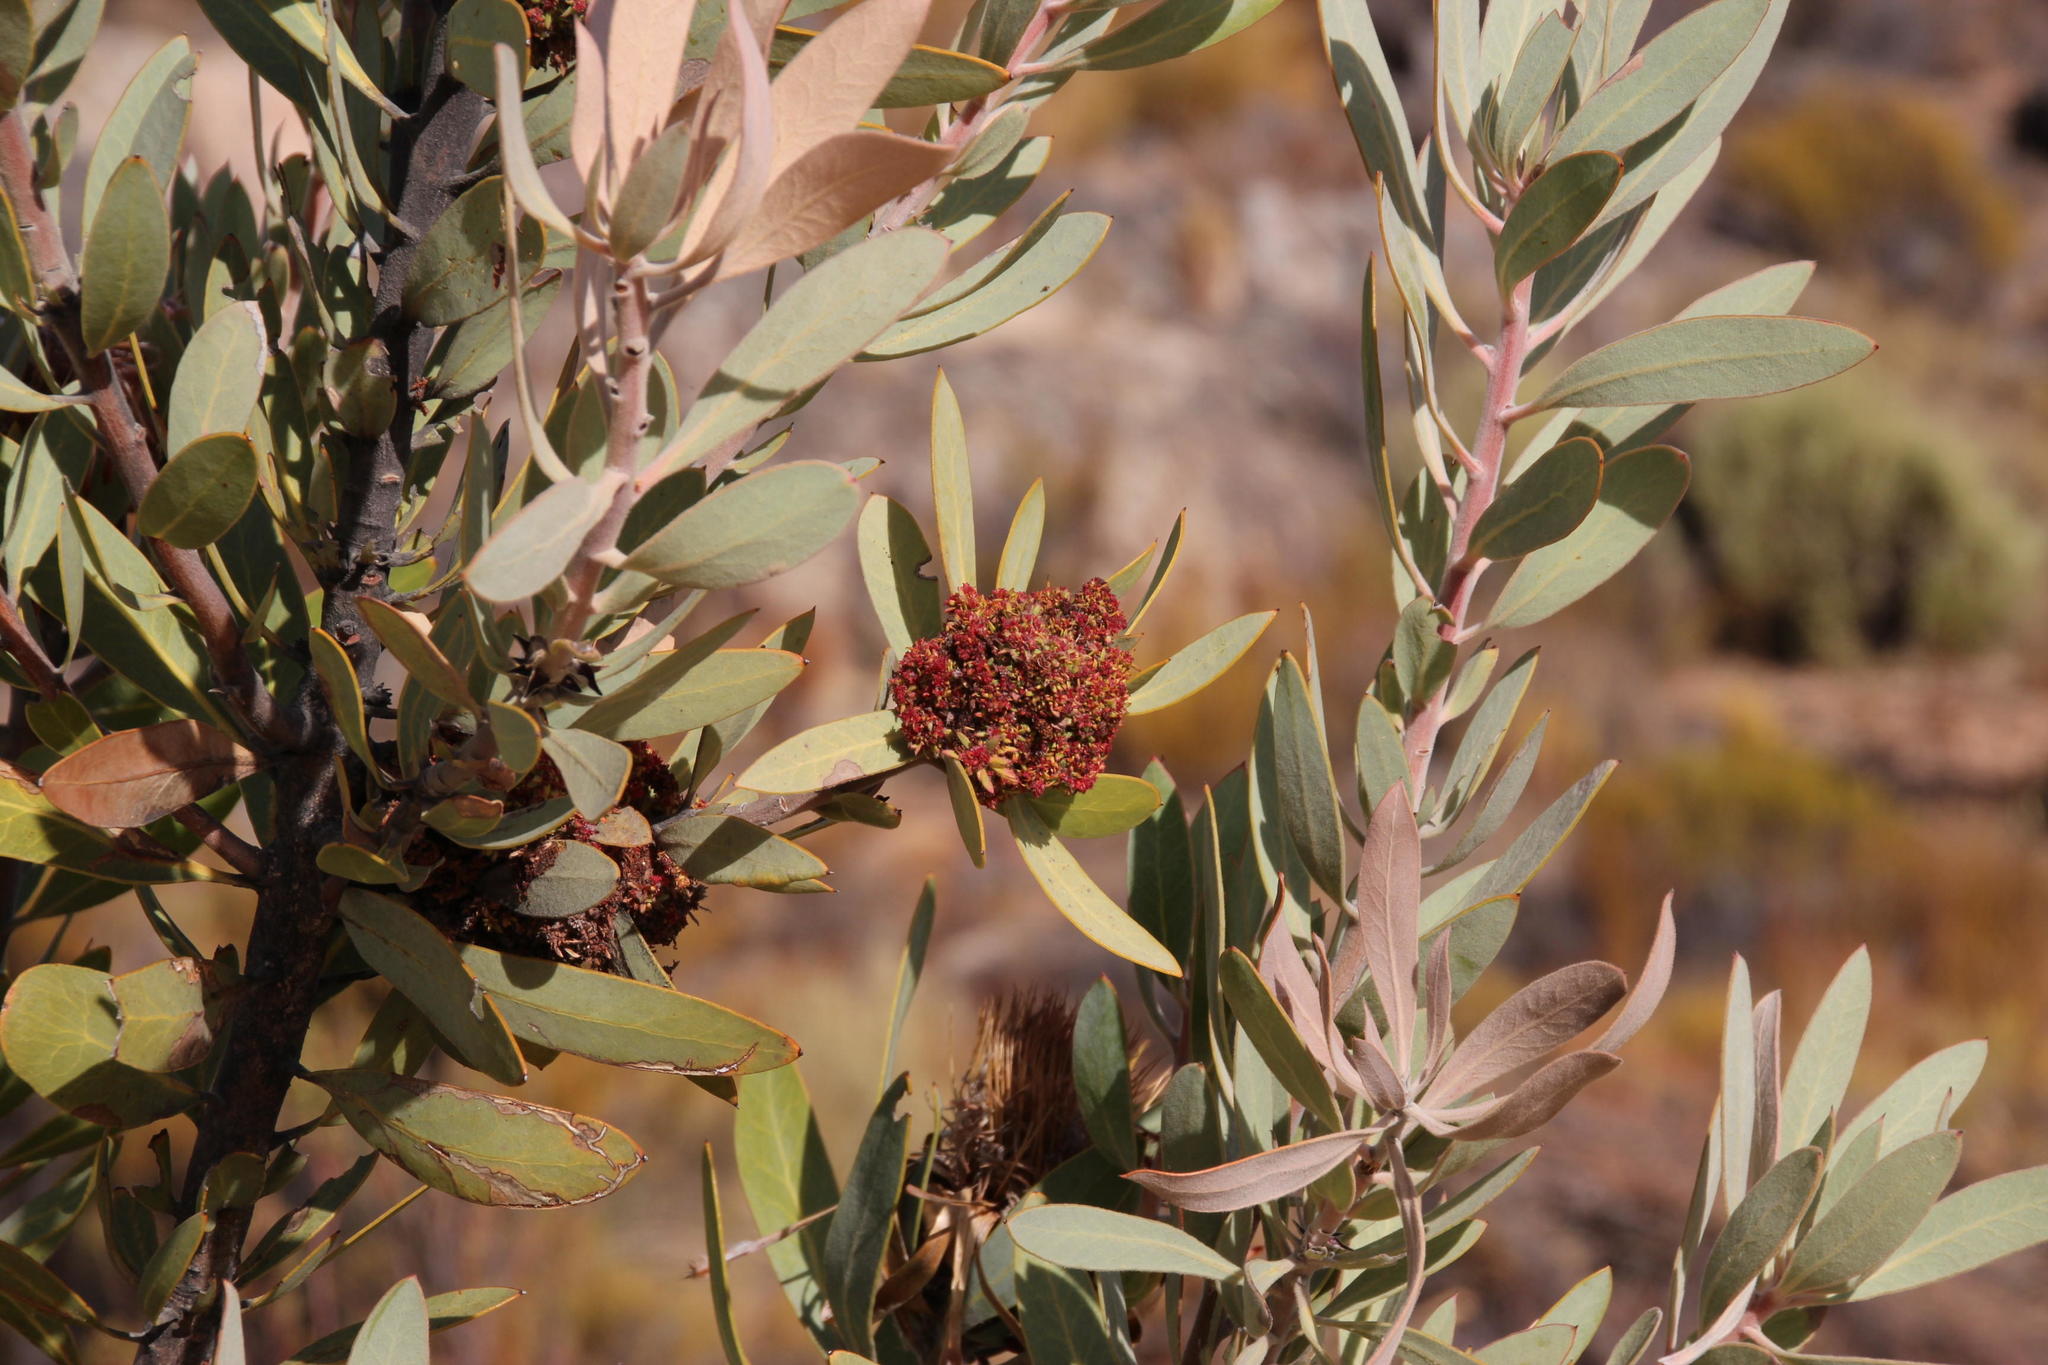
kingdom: Bacteria
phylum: Firmicutes
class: Bacilli
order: Acholeplasmatales
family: Acholeplasmataceae
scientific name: Acholeplasmataceae
